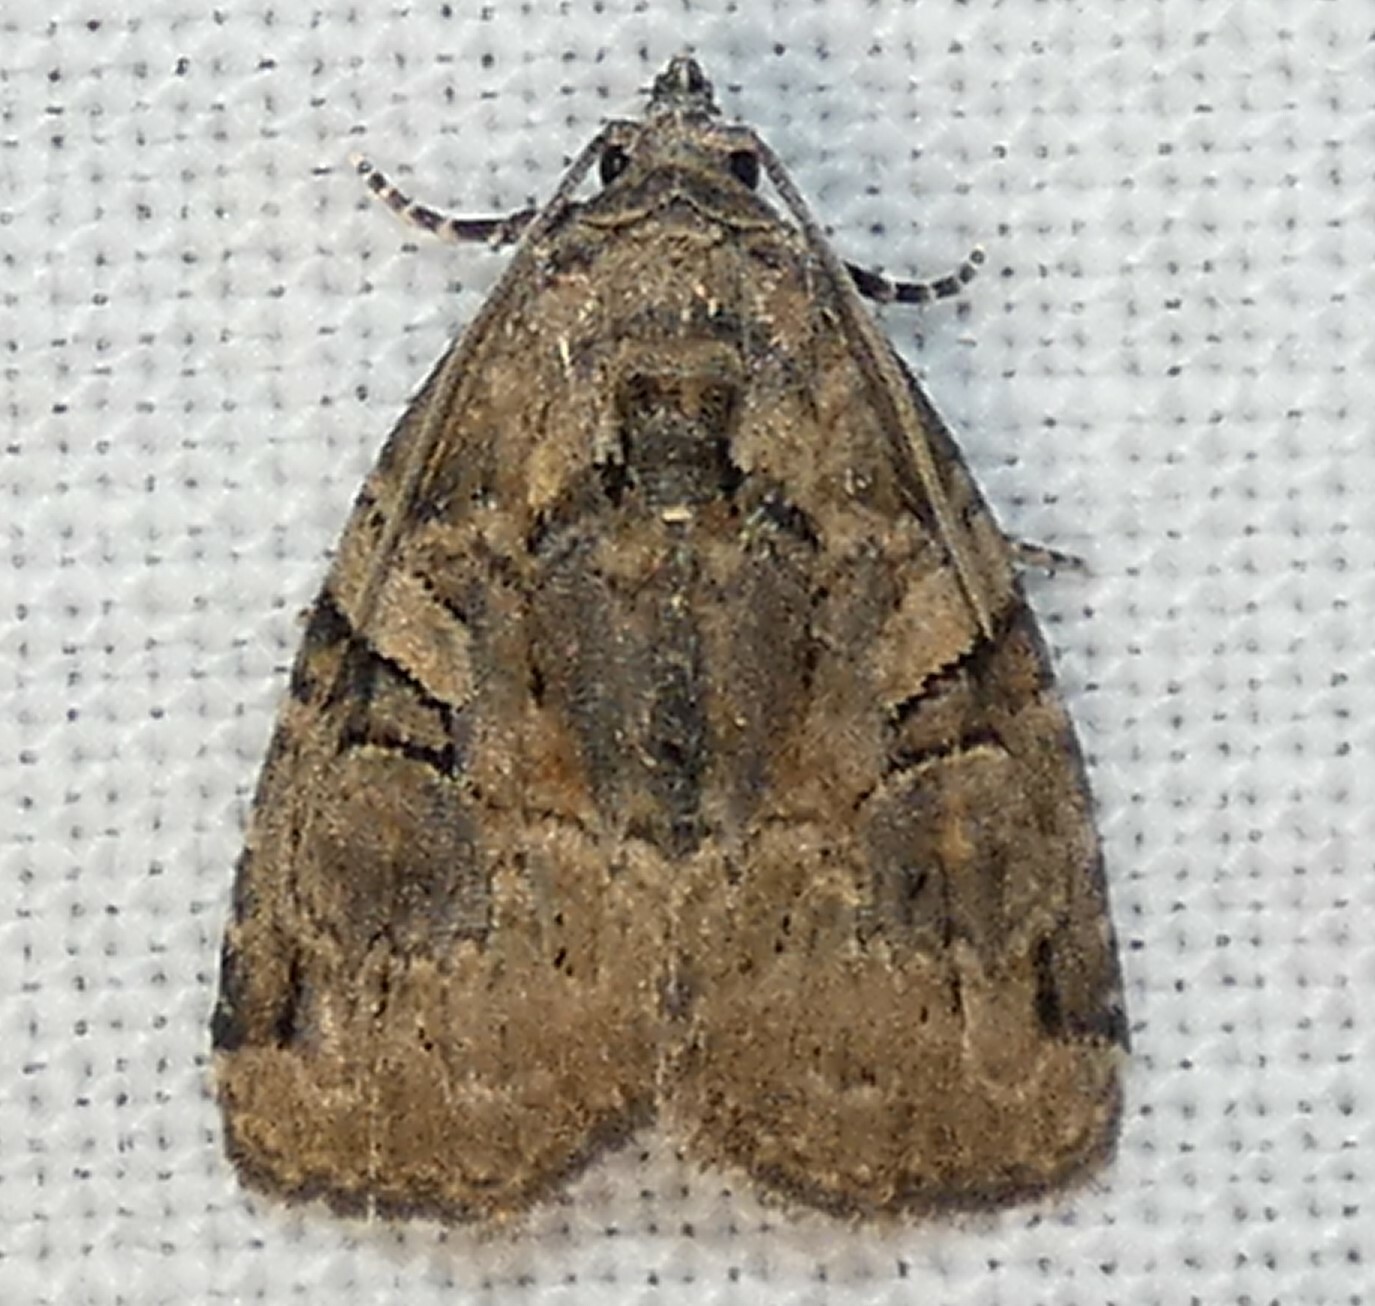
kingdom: Animalia
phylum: Arthropoda
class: Insecta
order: Lepidoptera
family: Noctuidae
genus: Pseudeustrotia
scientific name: Pseudeustrotia indeterminata
